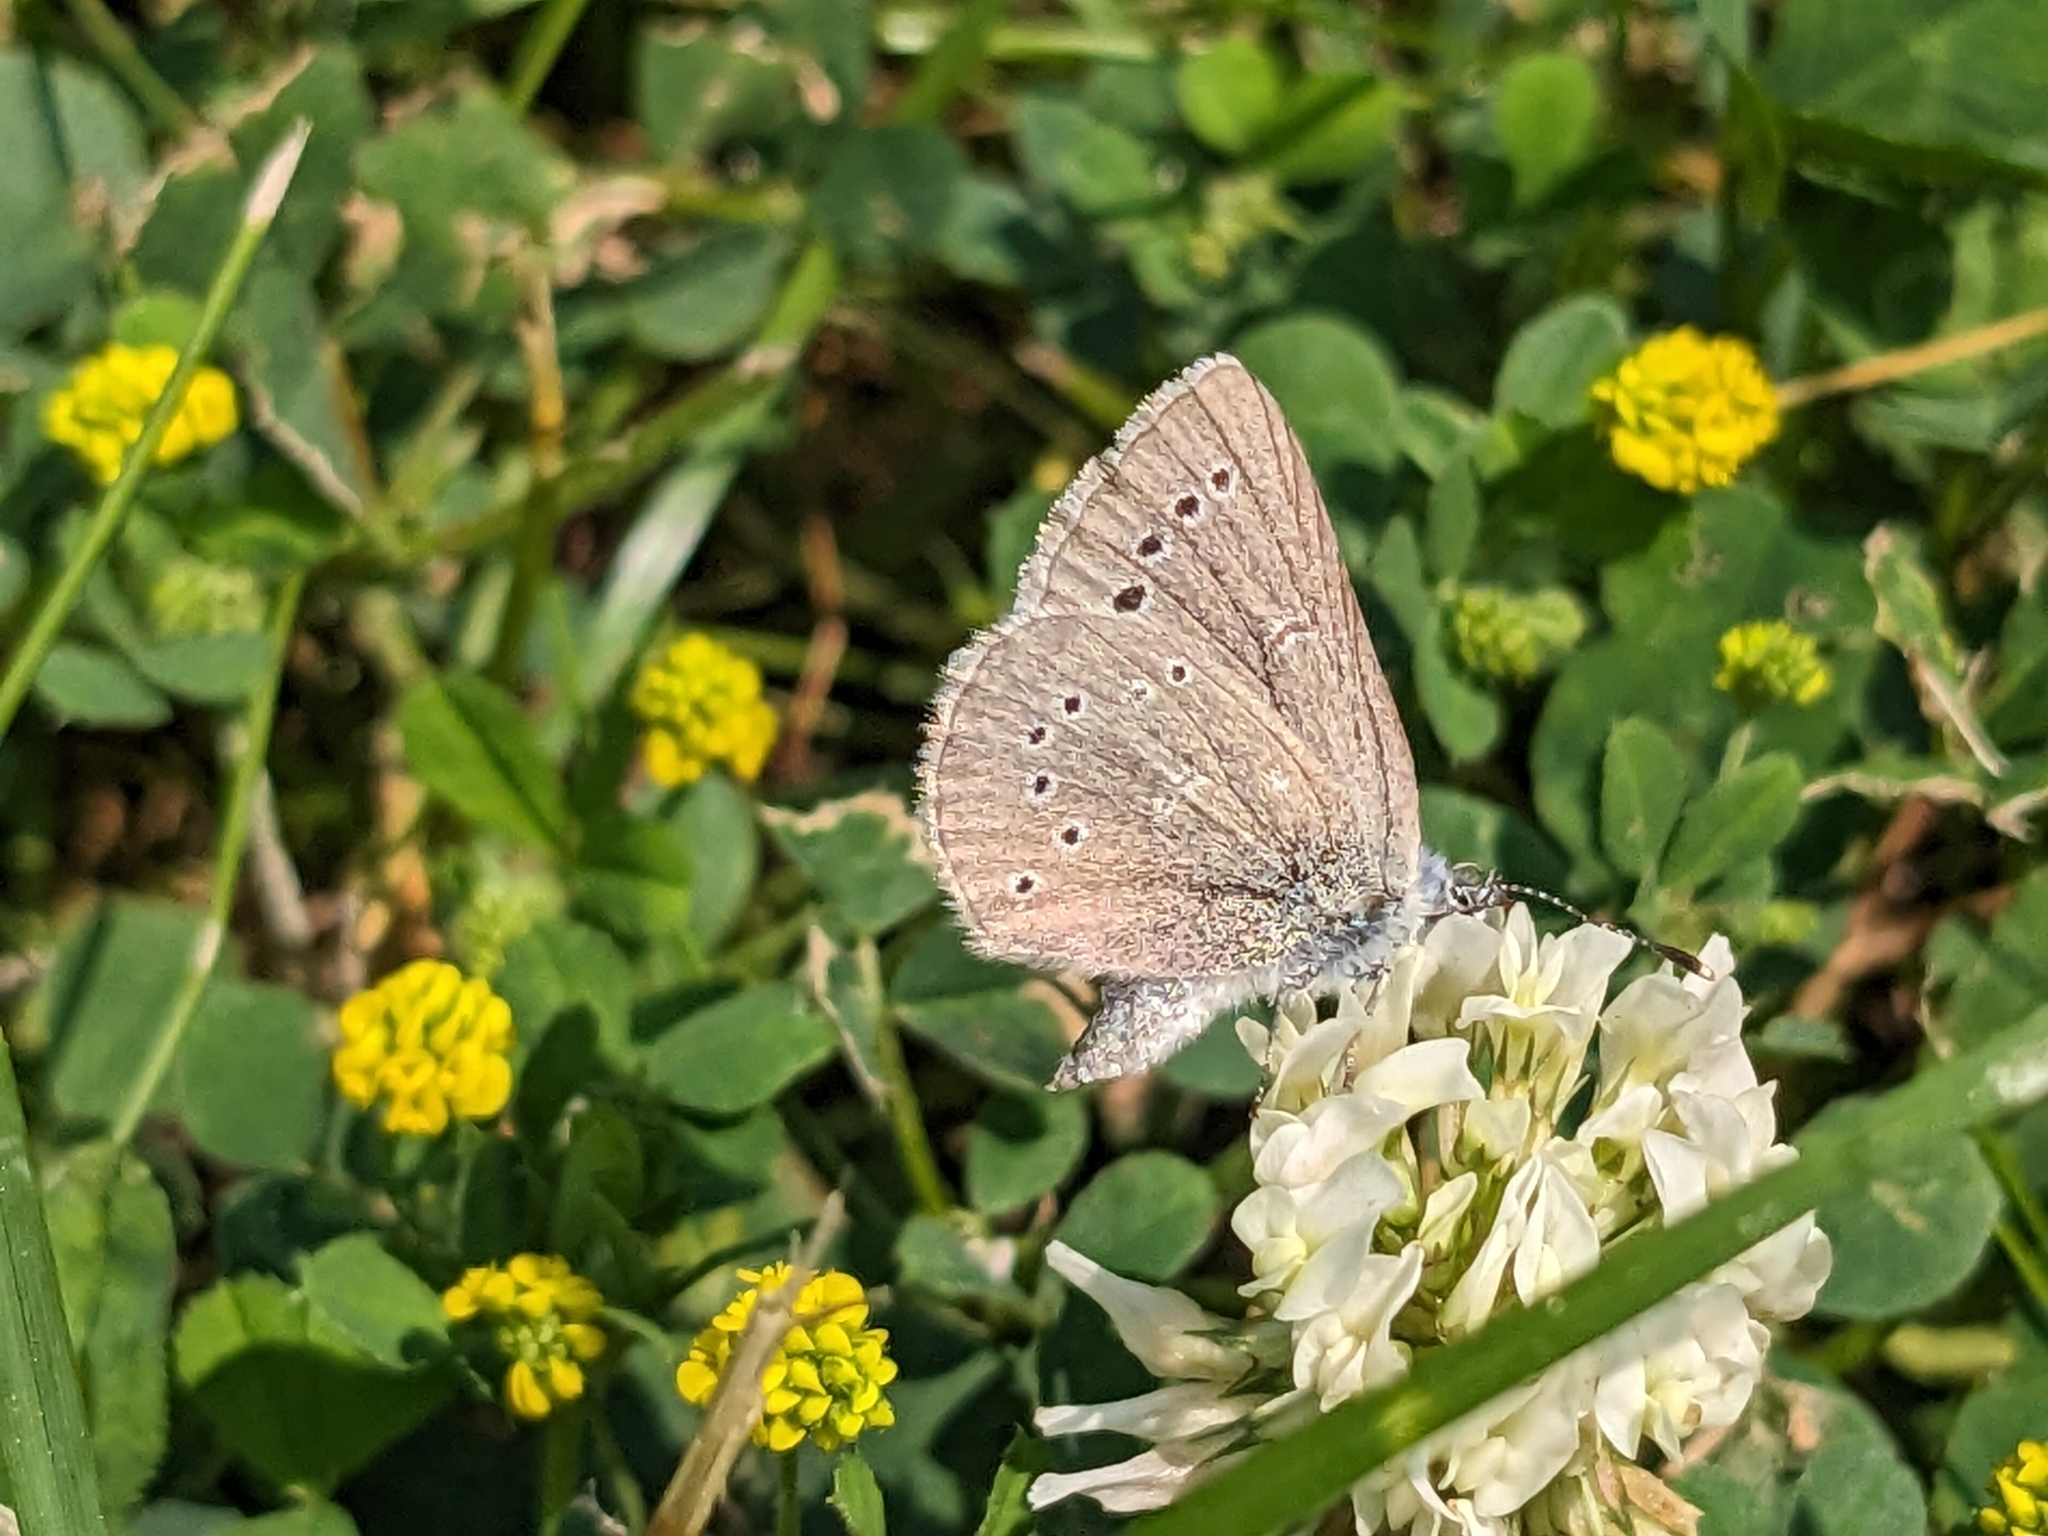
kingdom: Animalia
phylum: Arthropoda
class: Insecta
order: Lepidoptera
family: Lycaenidae
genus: Glaucopsyche
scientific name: Glaucopsyche lygdamus
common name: Silvery blue
